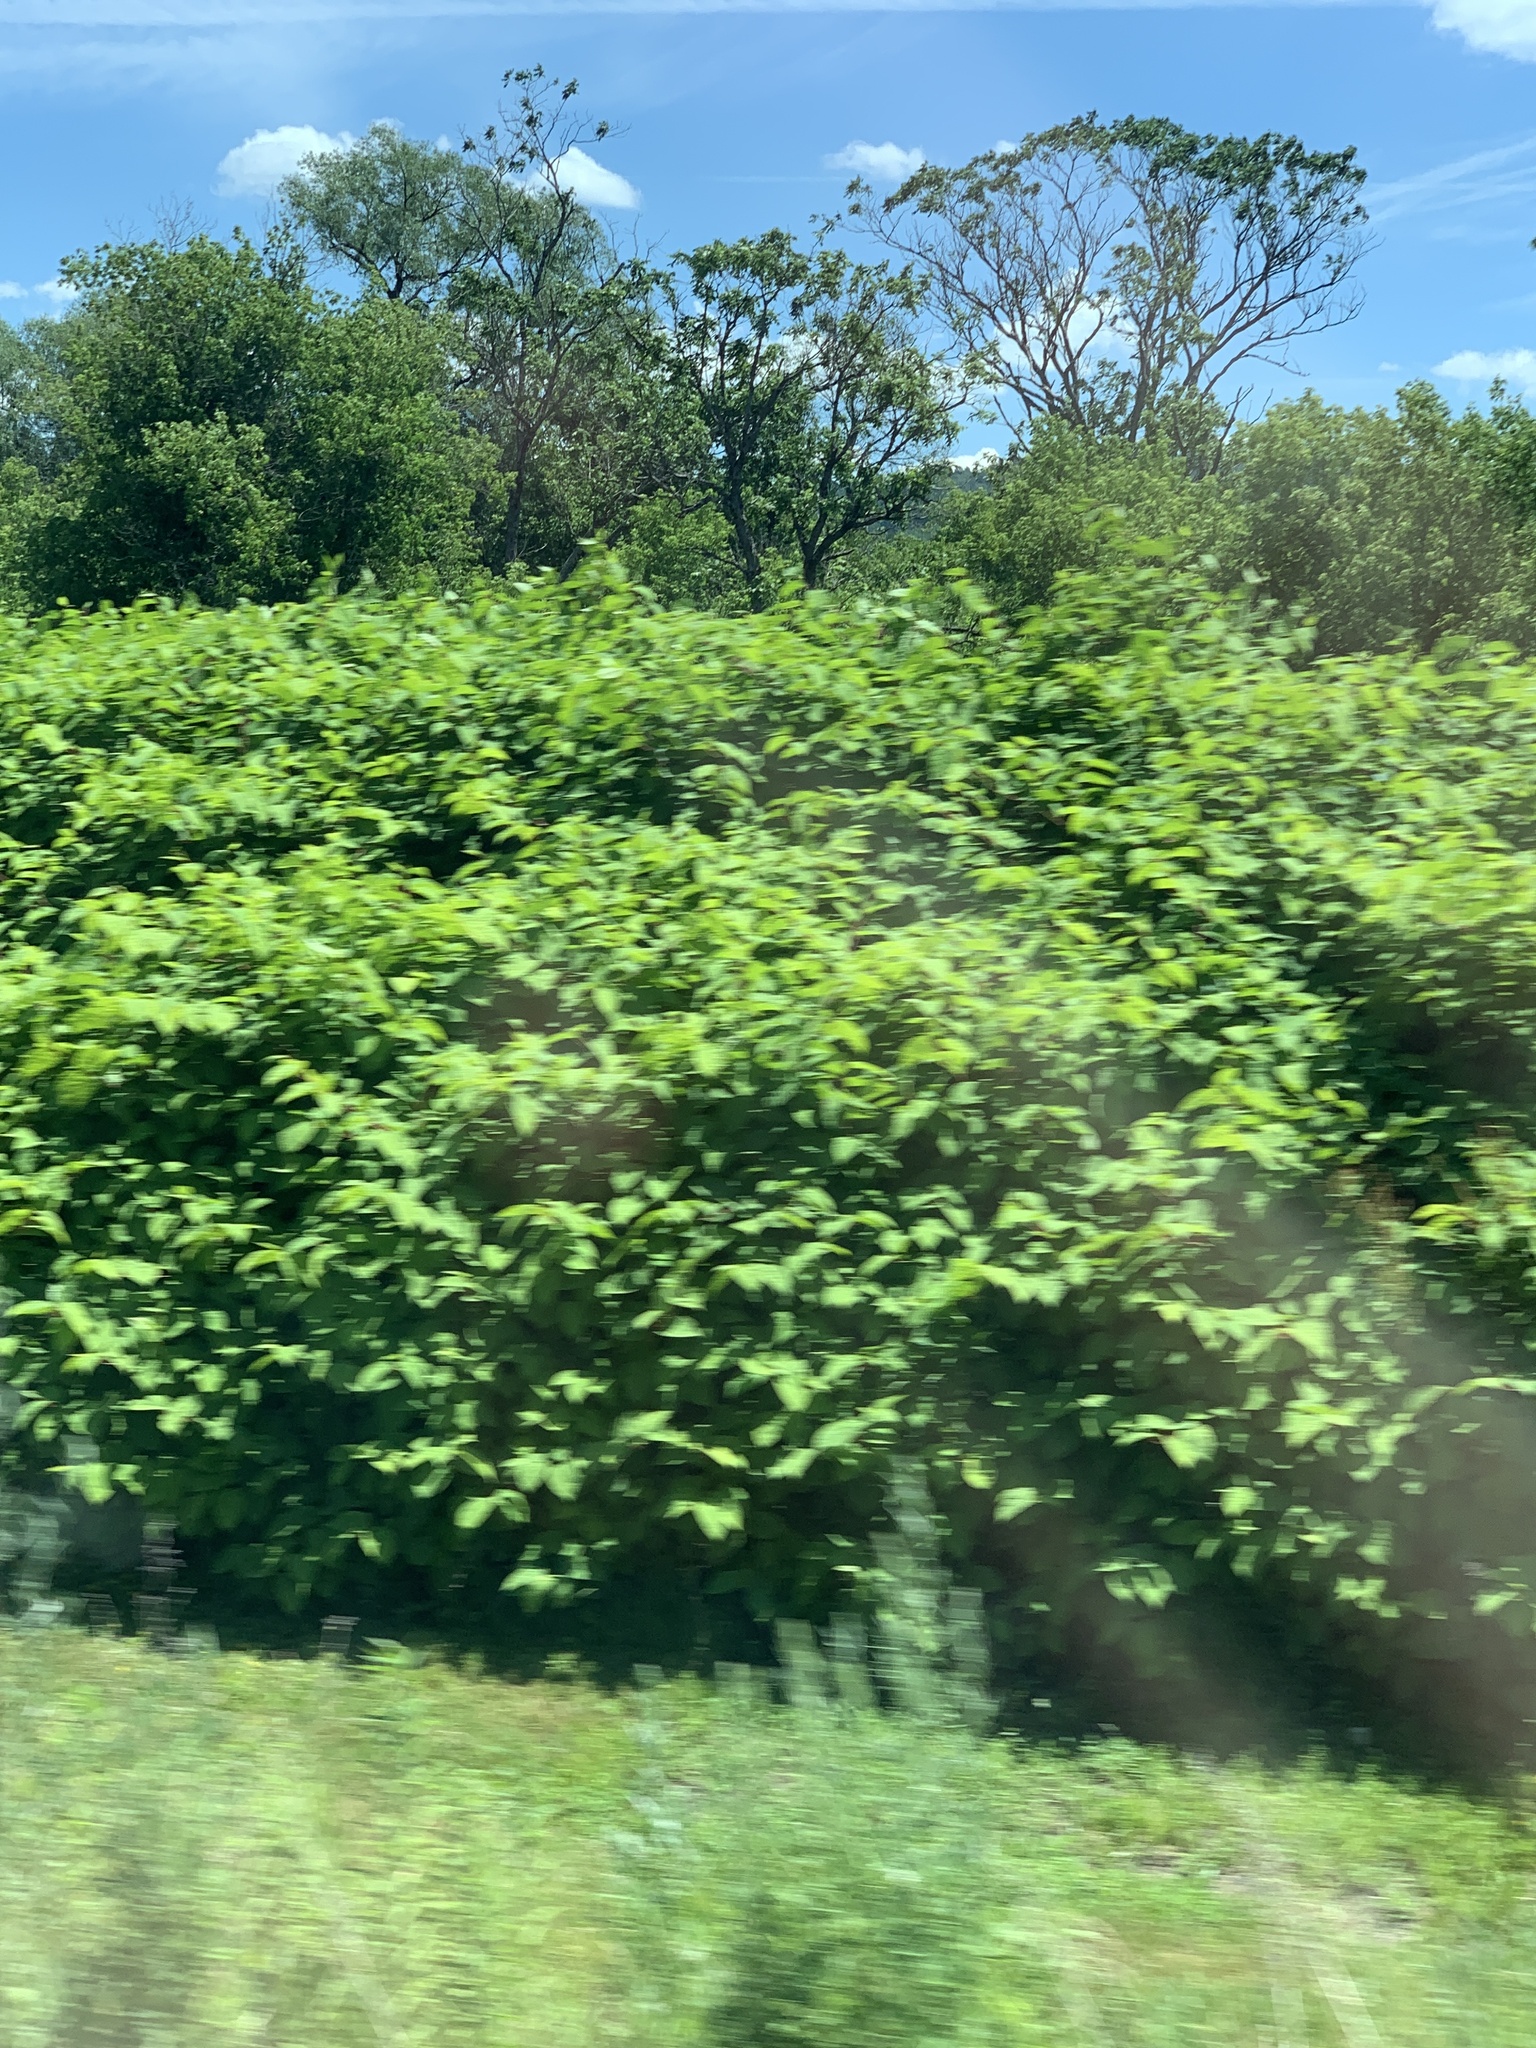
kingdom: Plantae
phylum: Tracheophyta
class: Magnoliopsida
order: Caryophyllales
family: Polygonaceae
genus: Reynoutria
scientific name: Reynoutria japonica
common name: Japanese knotweed
